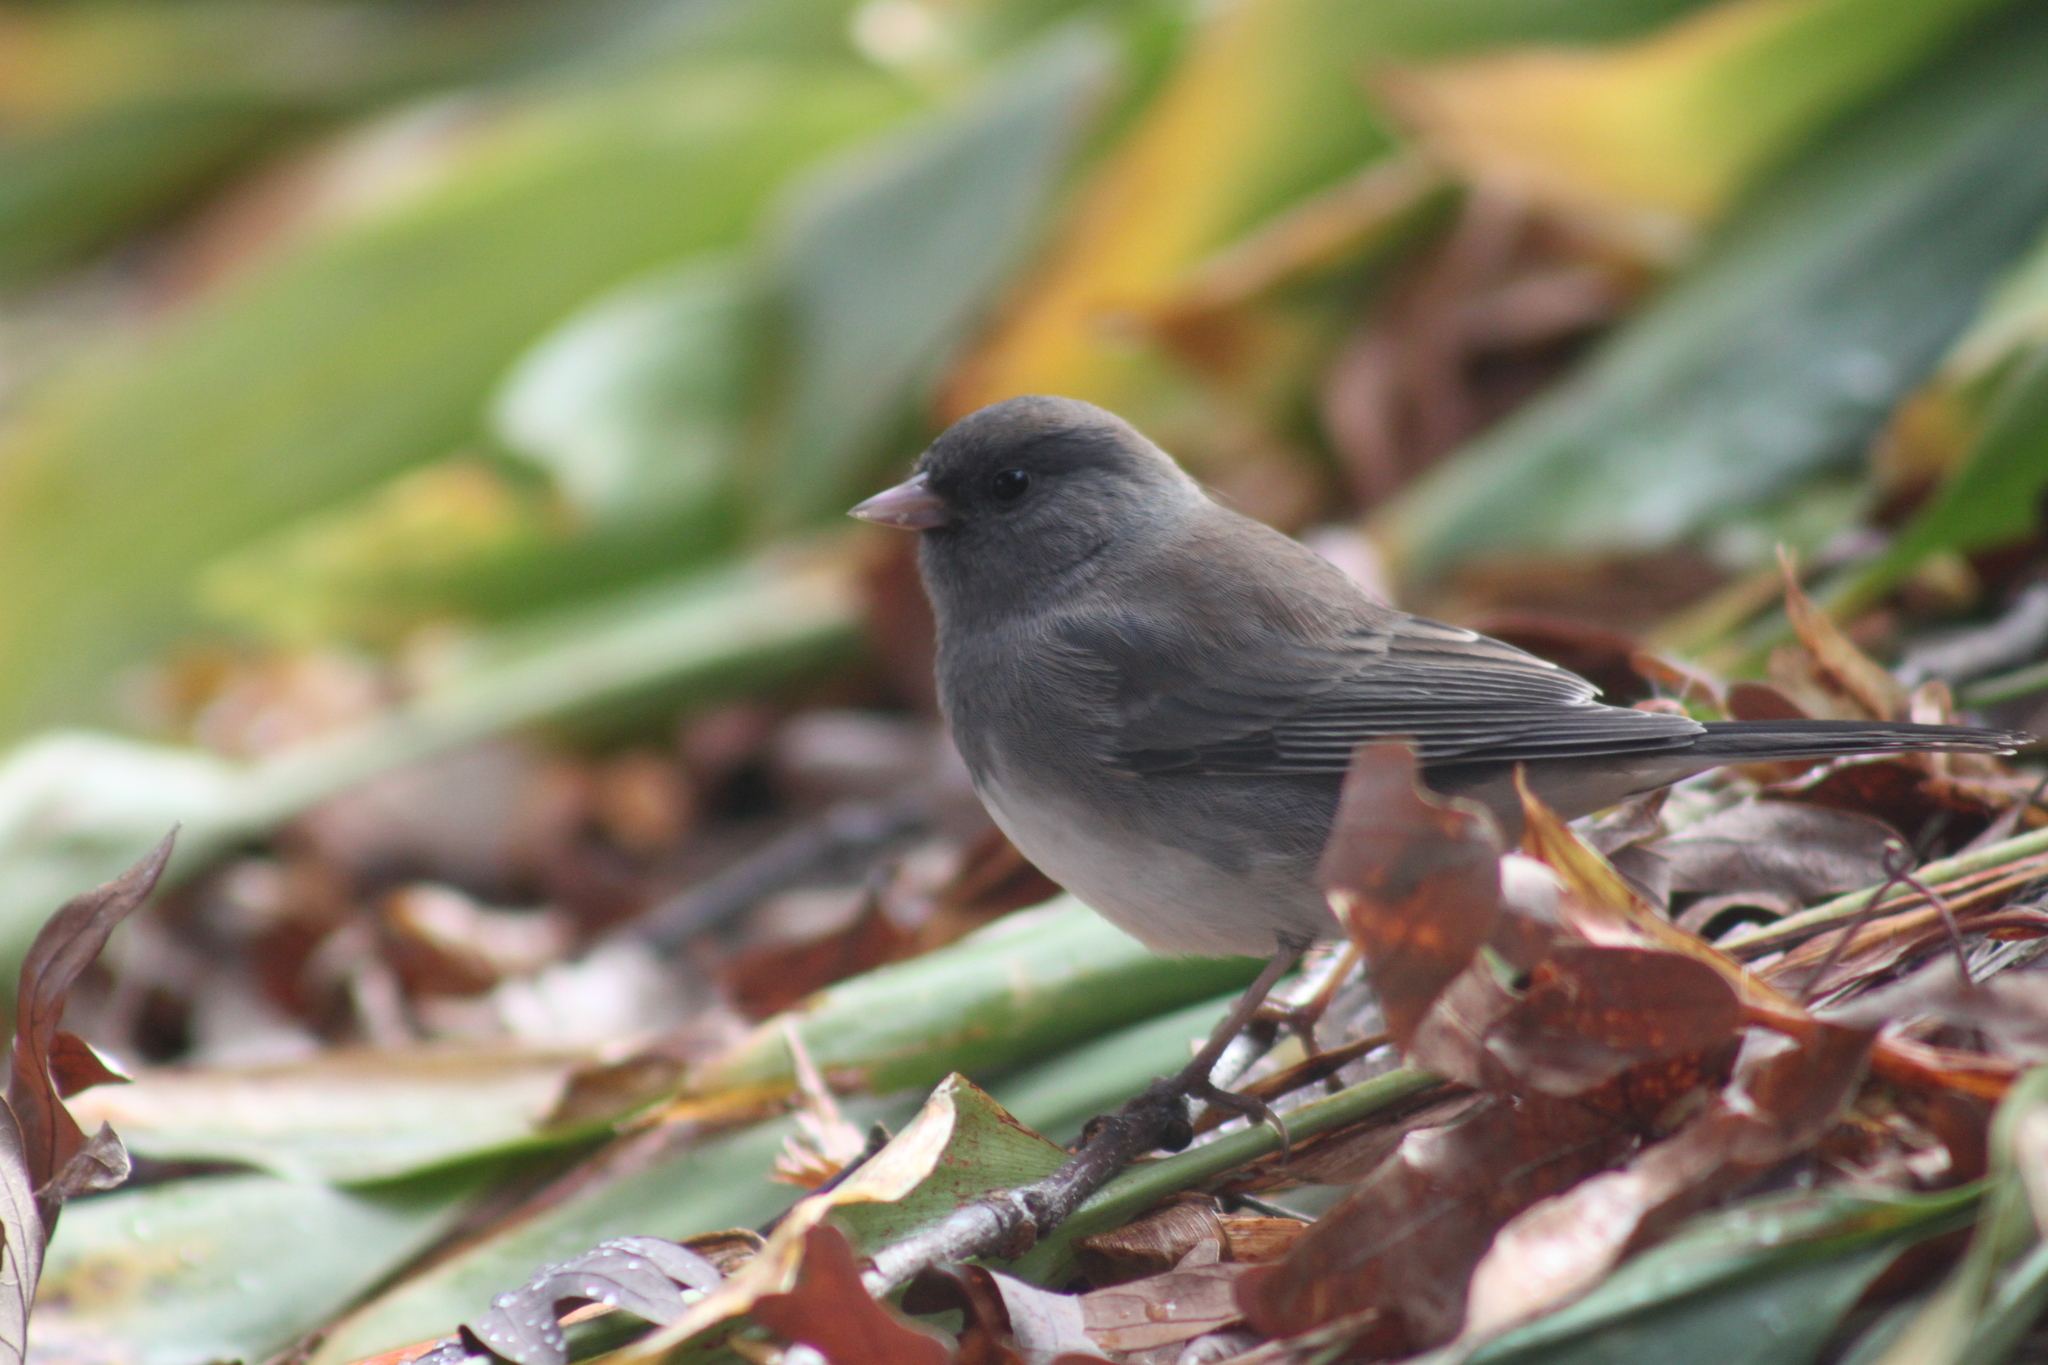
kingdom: Animalia
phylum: Chordata
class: Aves
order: Passeriformes
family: Passerellidae
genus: Junco
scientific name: Junco hyemalis
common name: Dark-eyed junco
